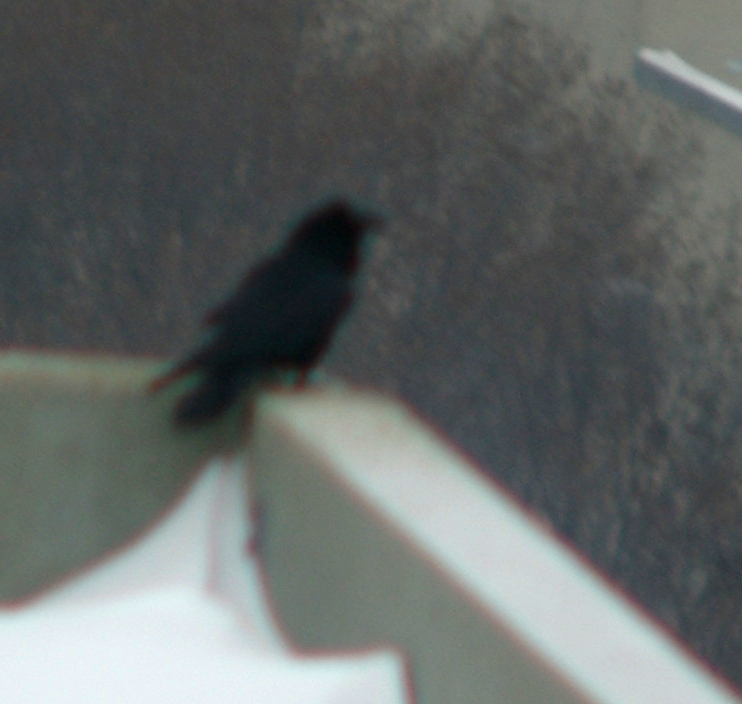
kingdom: Animalia
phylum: Chordata
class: Aves
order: Passeriformes
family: Corvidae
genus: Corvus
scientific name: Corvus corax
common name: Common raven
